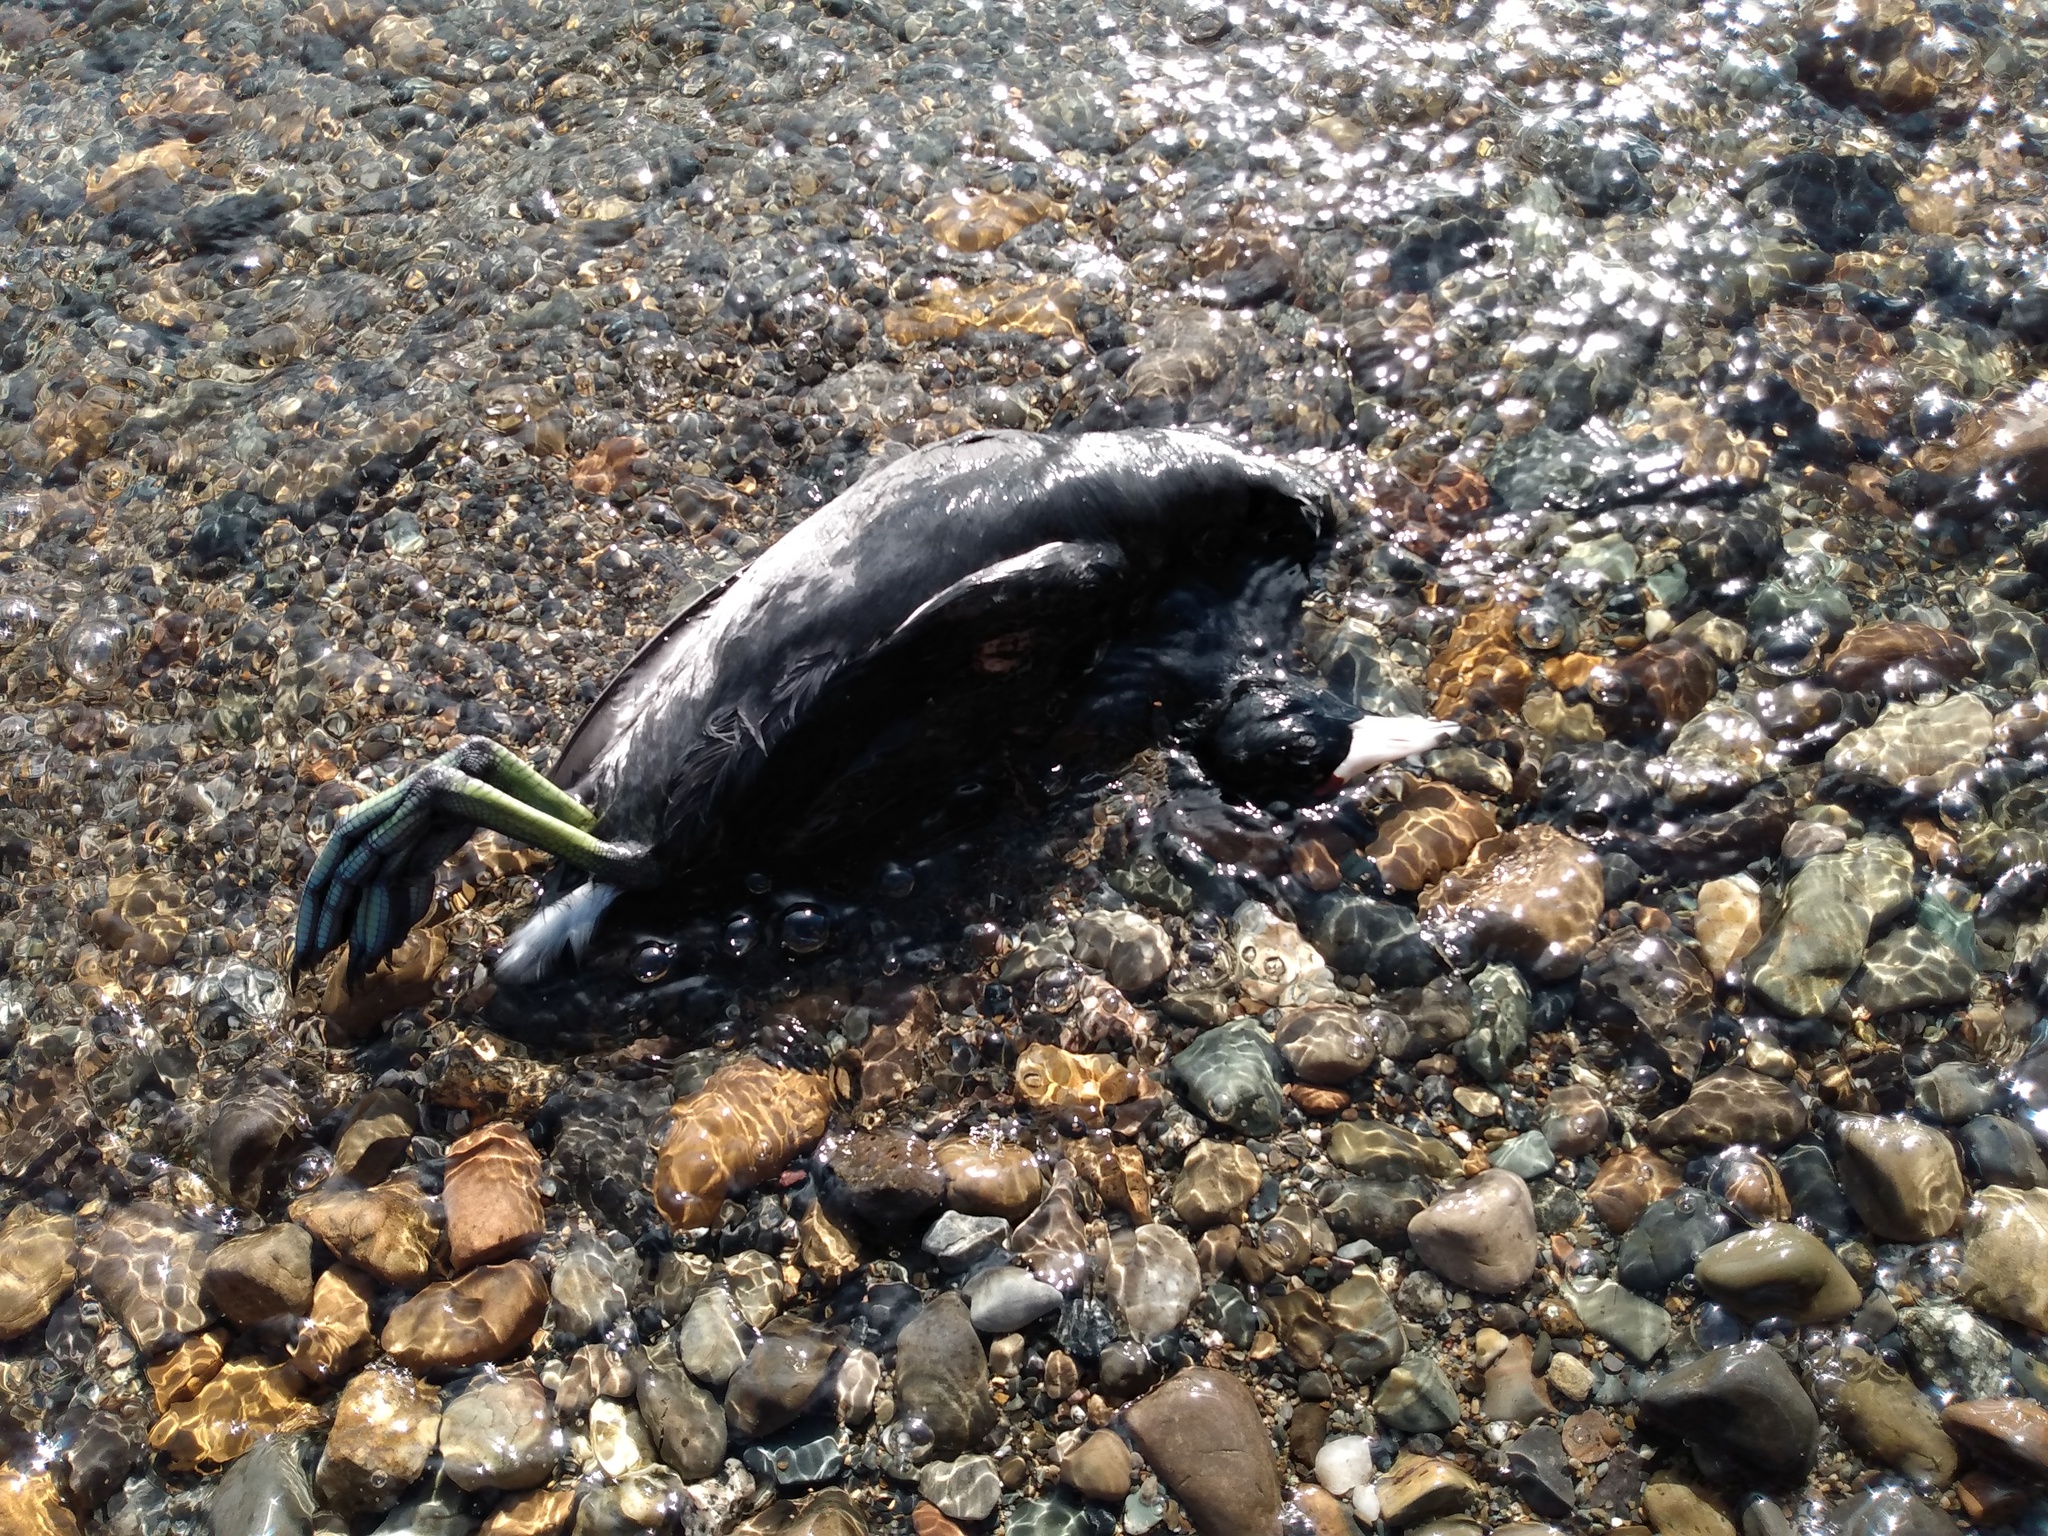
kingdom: Animalia
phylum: Chordata
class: Aves
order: Gruiformes
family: Rallidae
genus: Fulica
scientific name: Fulica americana
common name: American coot
